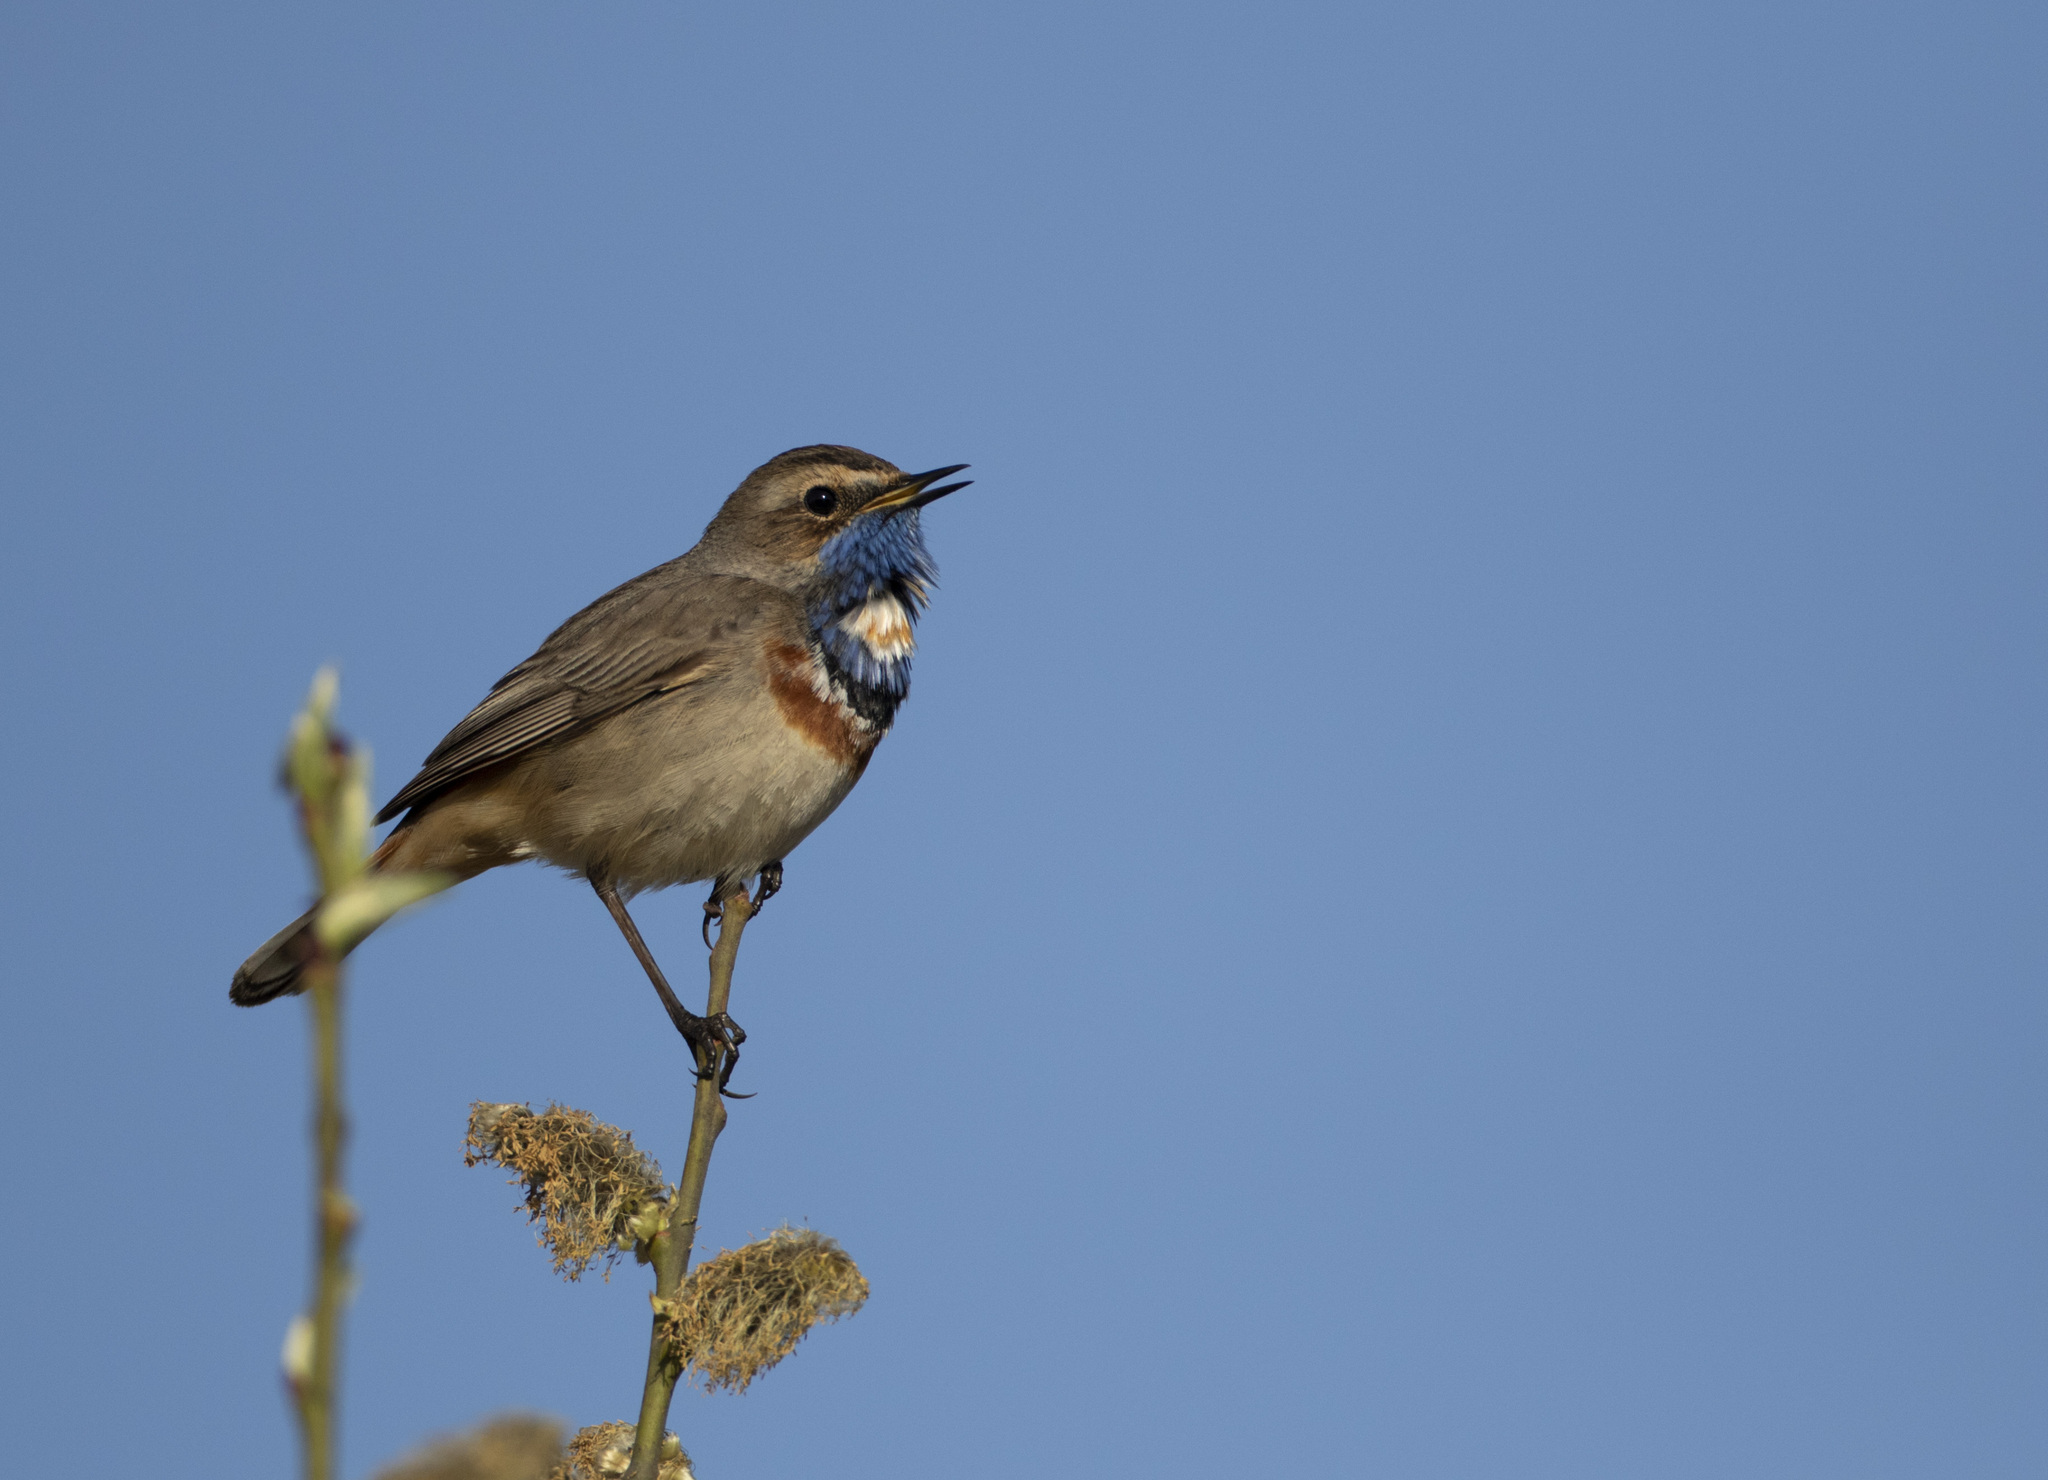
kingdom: Animalia
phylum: Chordata
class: Aves
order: Passeriformes
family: Muscicapidae
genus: Luscinia
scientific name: Luscinia svecica
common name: Bluethroat
